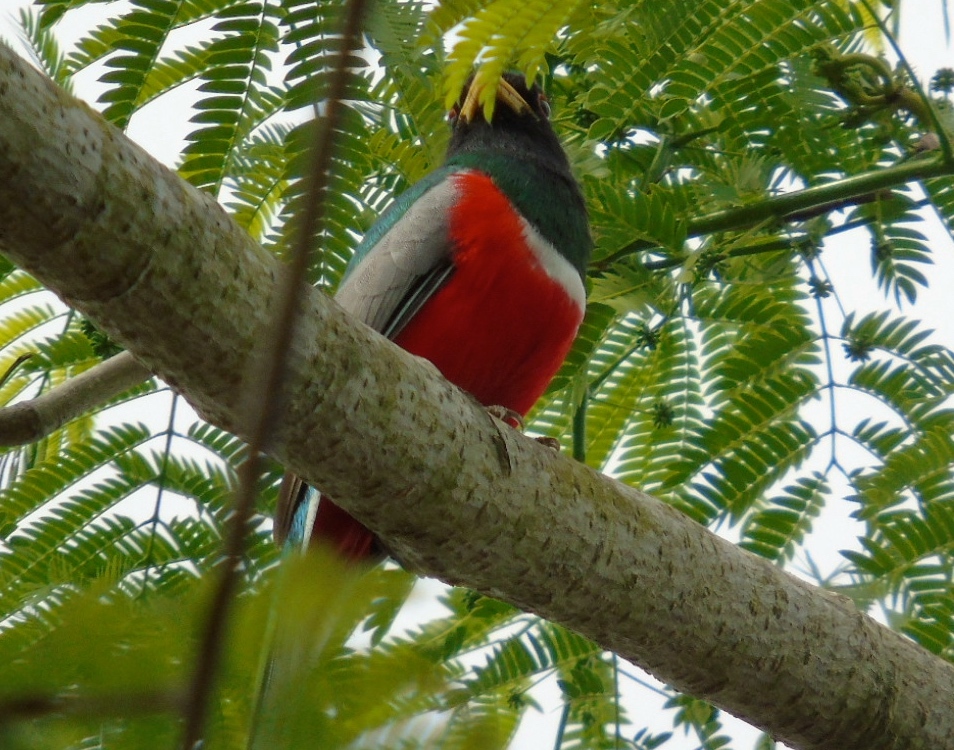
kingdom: Animalia
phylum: Chordata
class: Aves
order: Trogoniformes
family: Trogonidae
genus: Trogon
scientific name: Trogon elegans
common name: Elegant trogon
